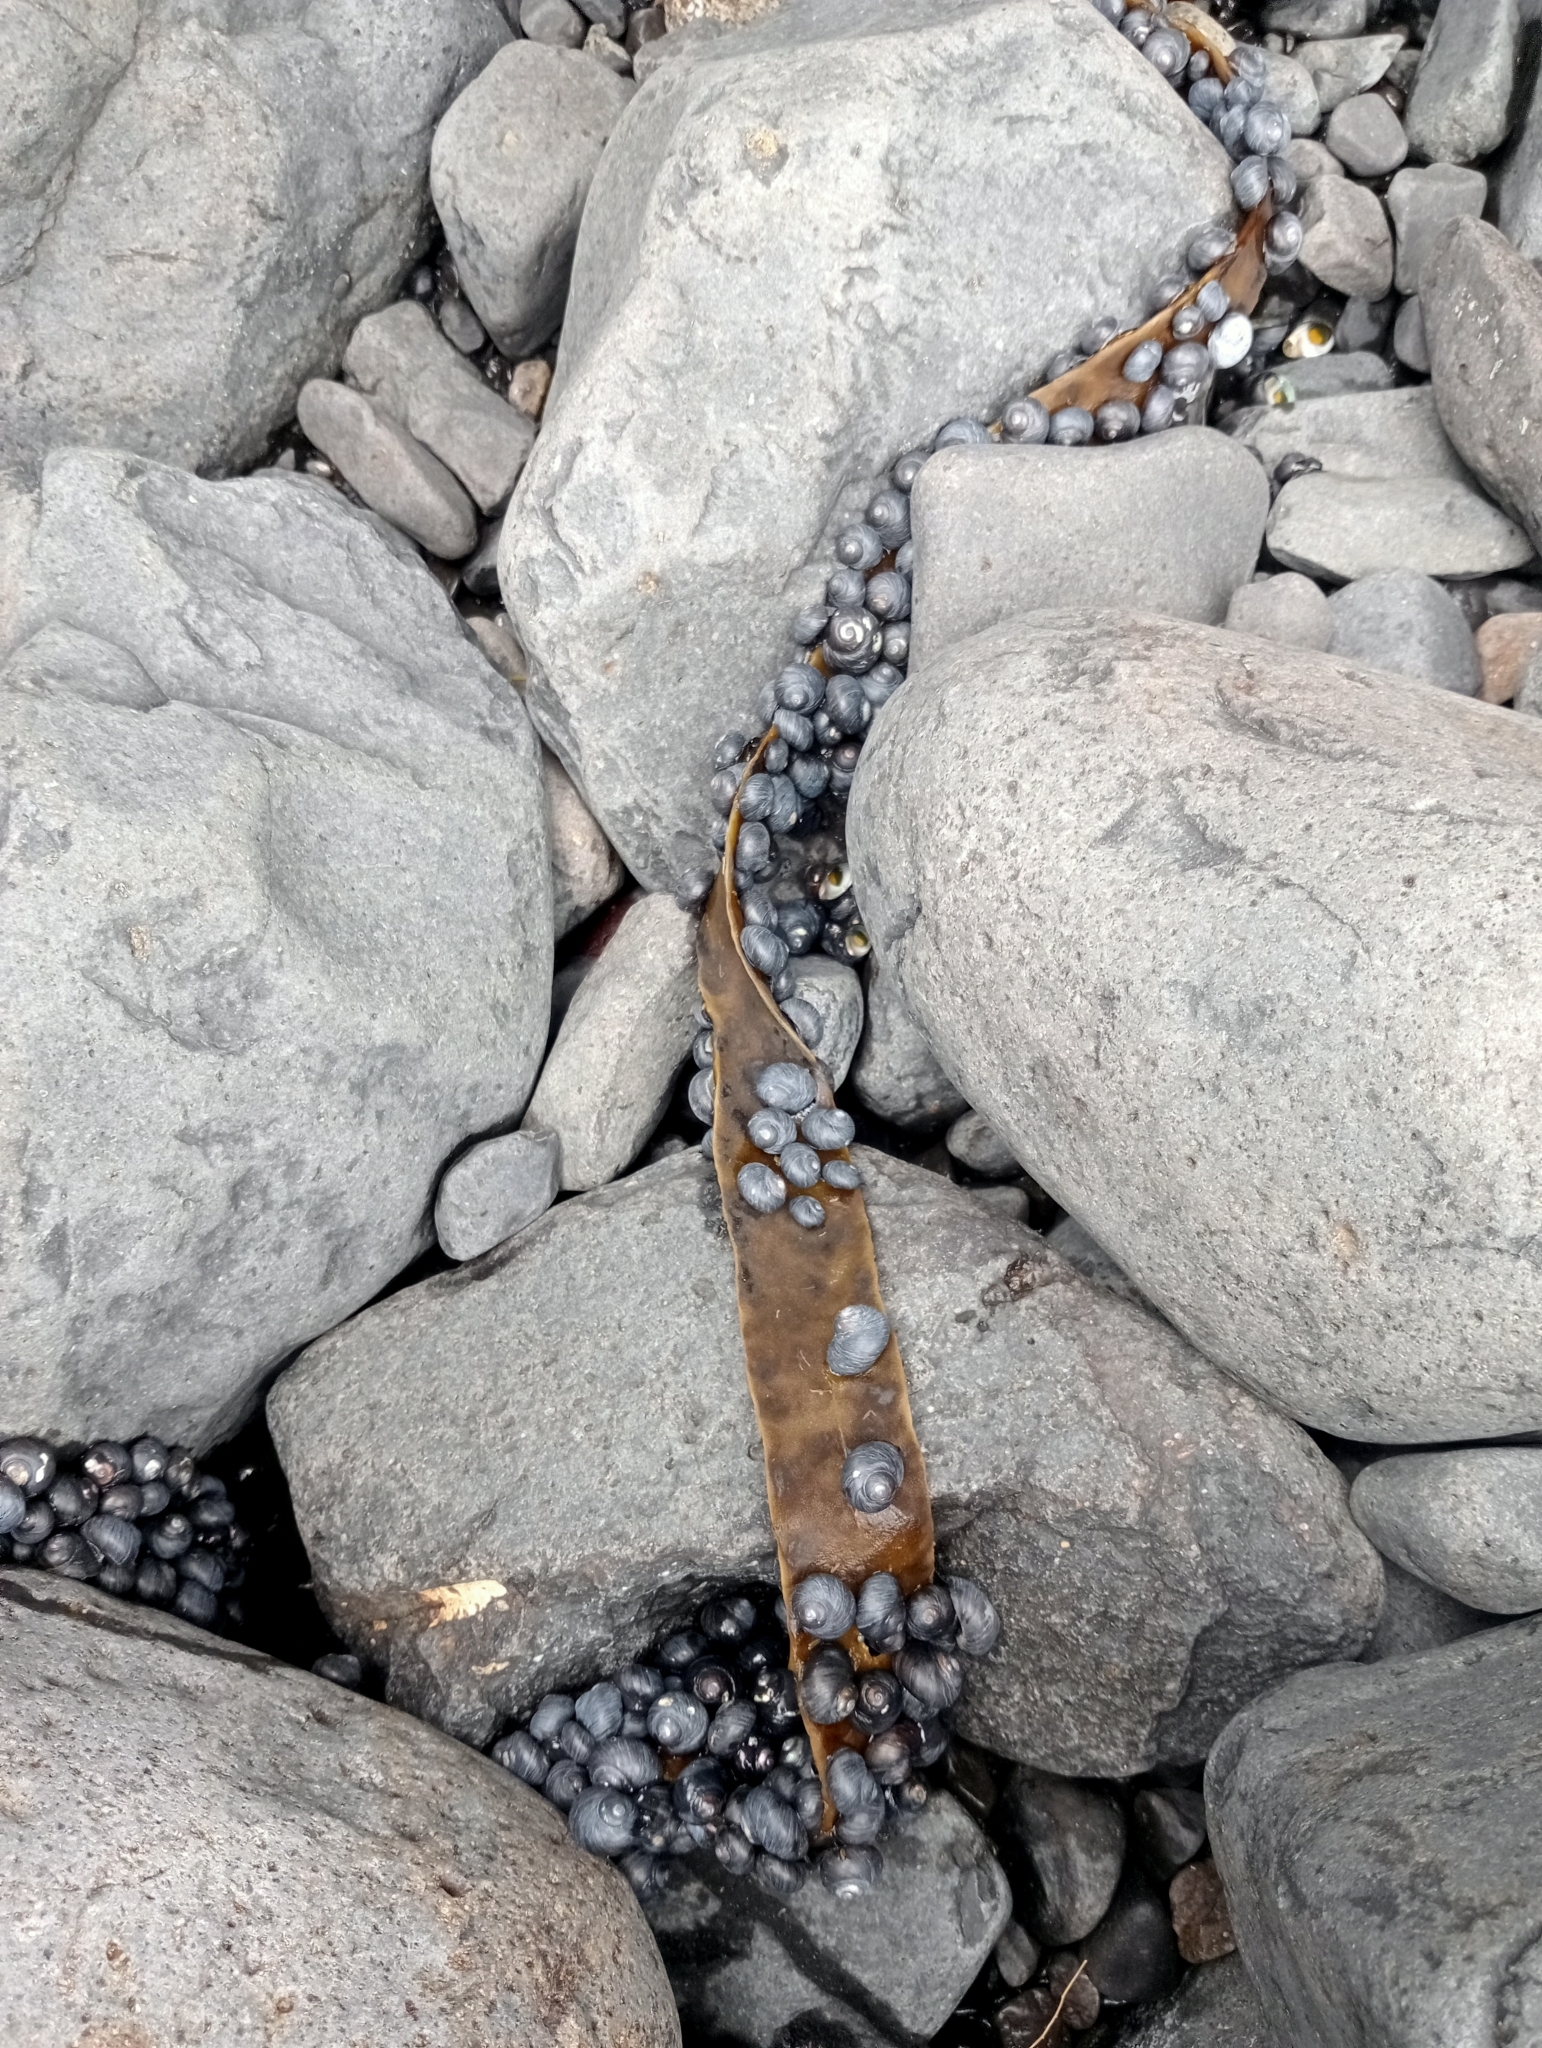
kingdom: Animalia
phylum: Mollusca
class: Gastropoda
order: Trochida
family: Trochidae
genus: Diloma
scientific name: Diloma nigerrimum
